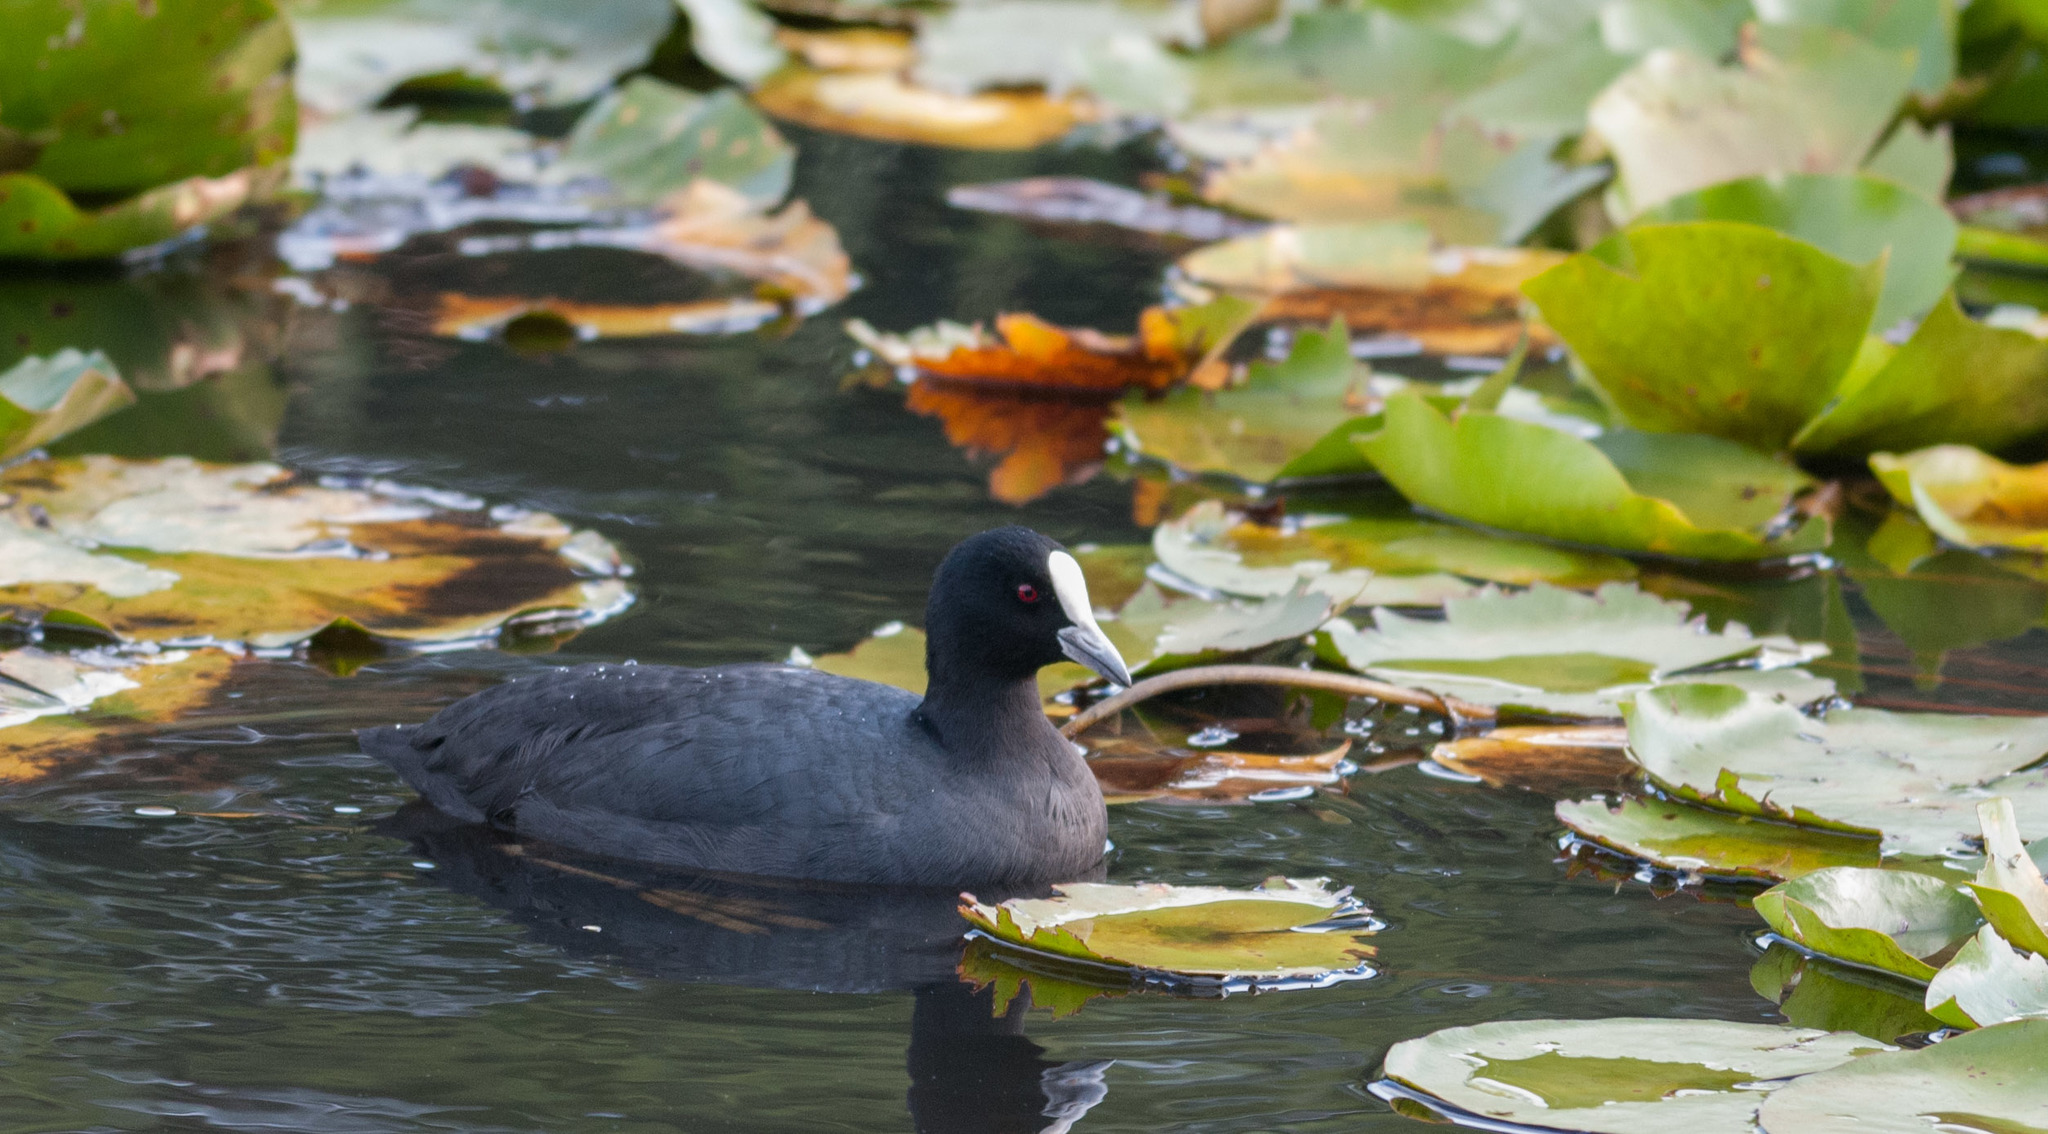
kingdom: Animalia
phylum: Chordata
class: Aves
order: Gruiformes
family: Rallidae
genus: Fulica
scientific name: Fulica atra
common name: Eurasian coot
